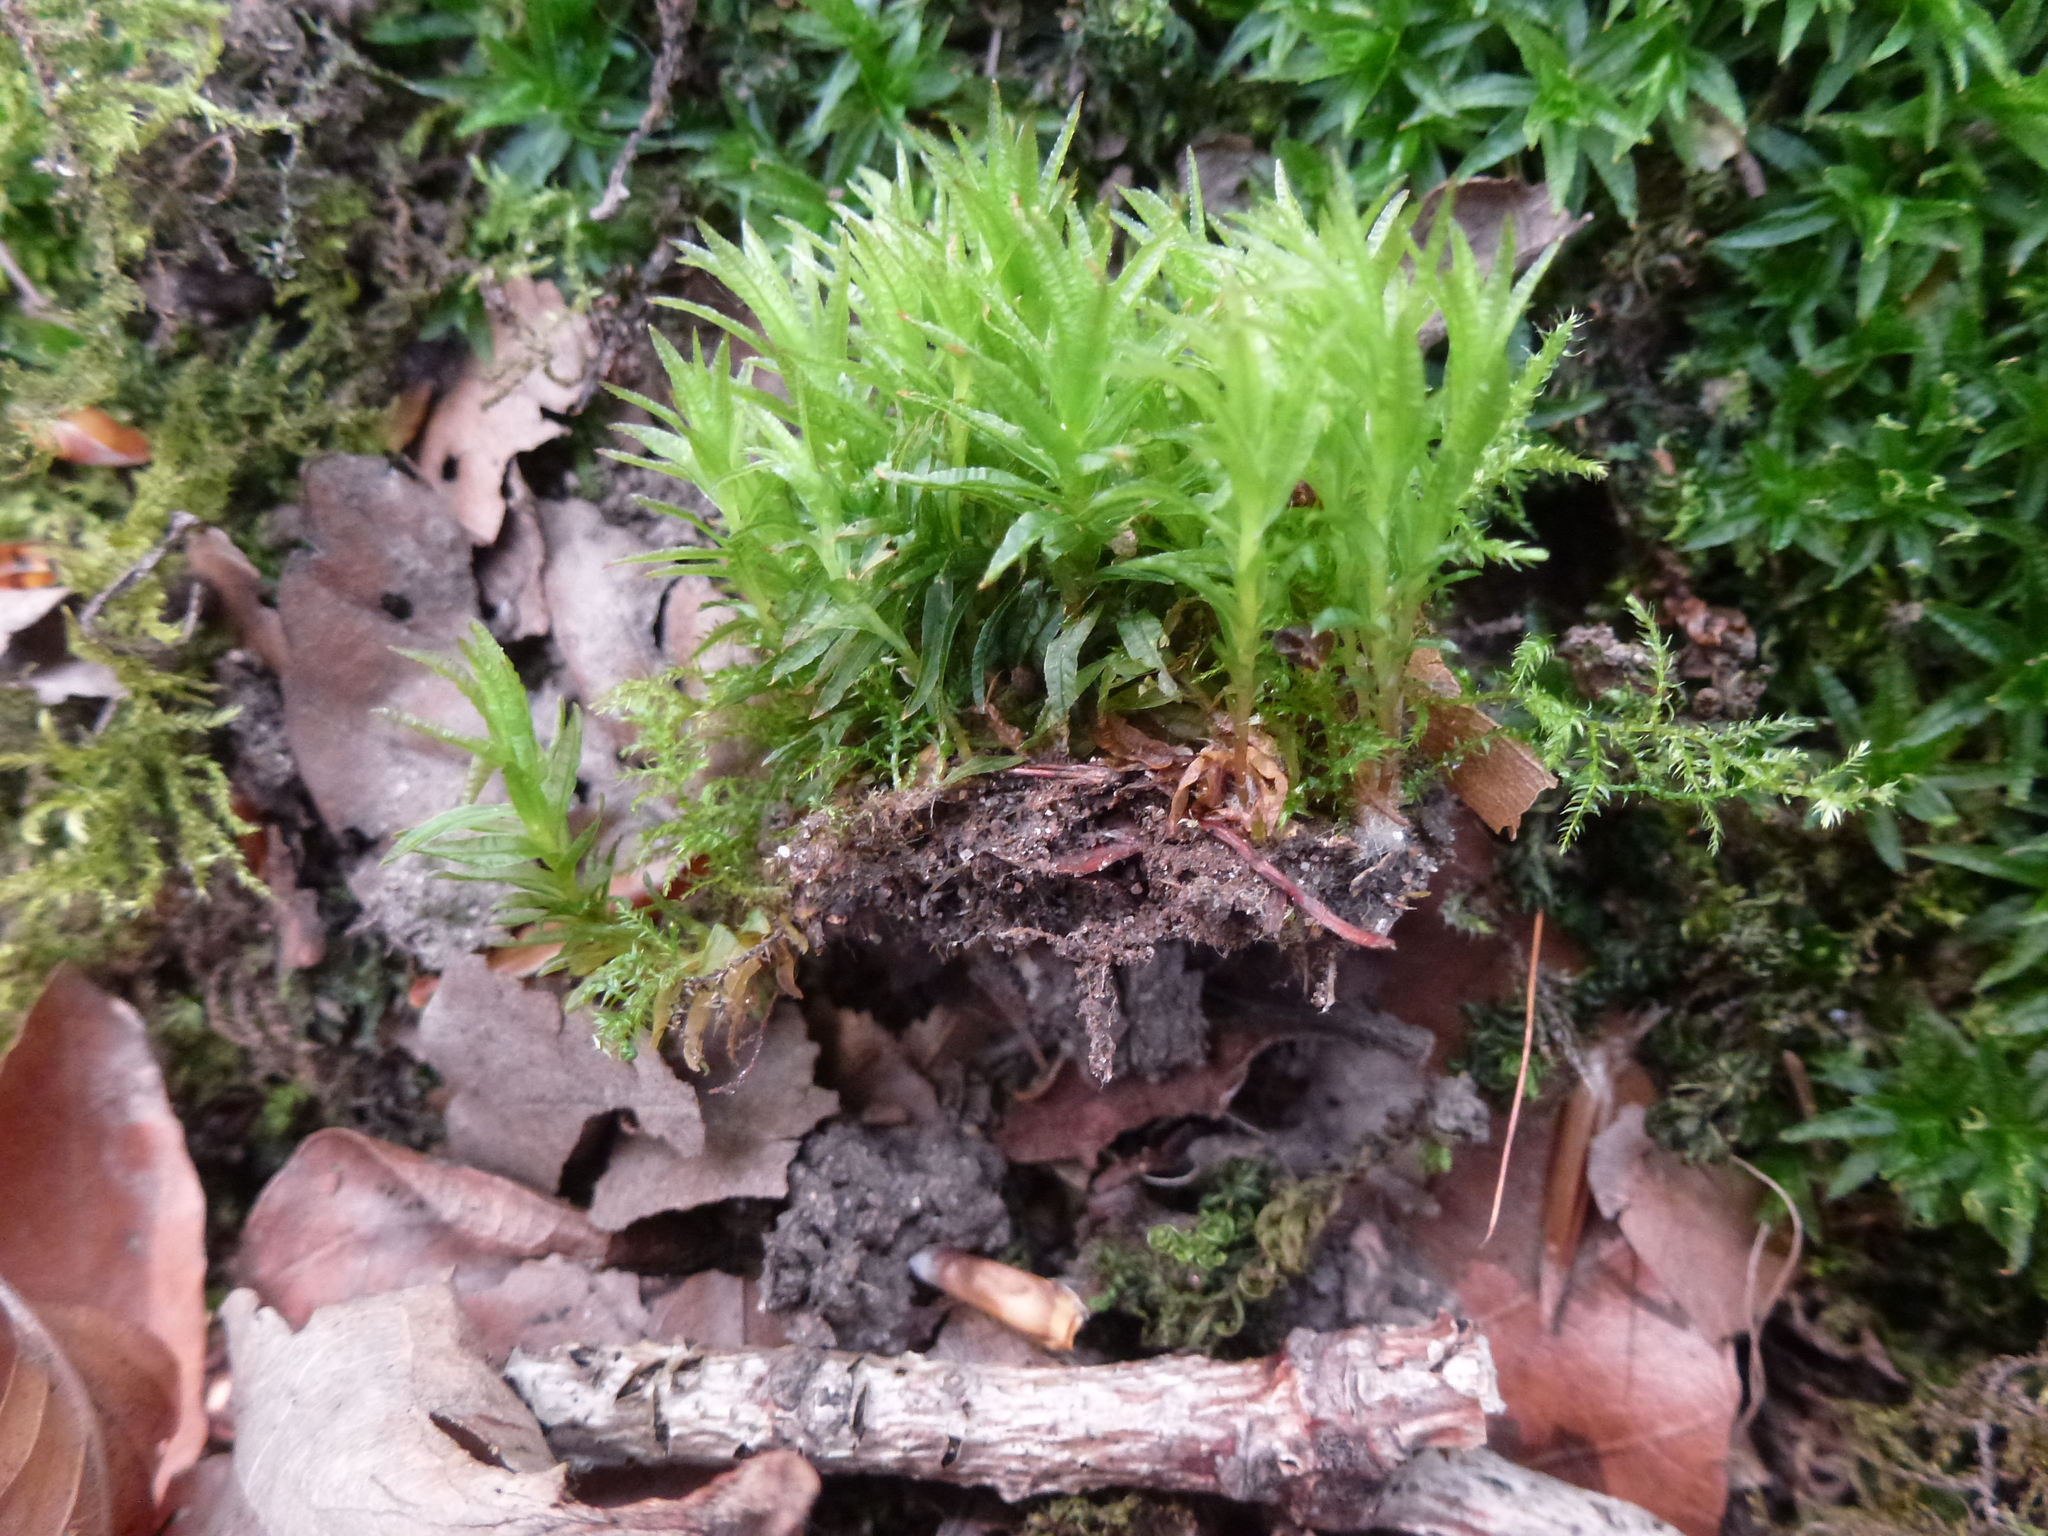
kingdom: Plantae
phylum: Bryophyta
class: Polytrichopsida
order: Polytrichales
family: Polytrichaceae
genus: Atrichum
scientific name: Atrichum undulatum
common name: Common smoothcap
